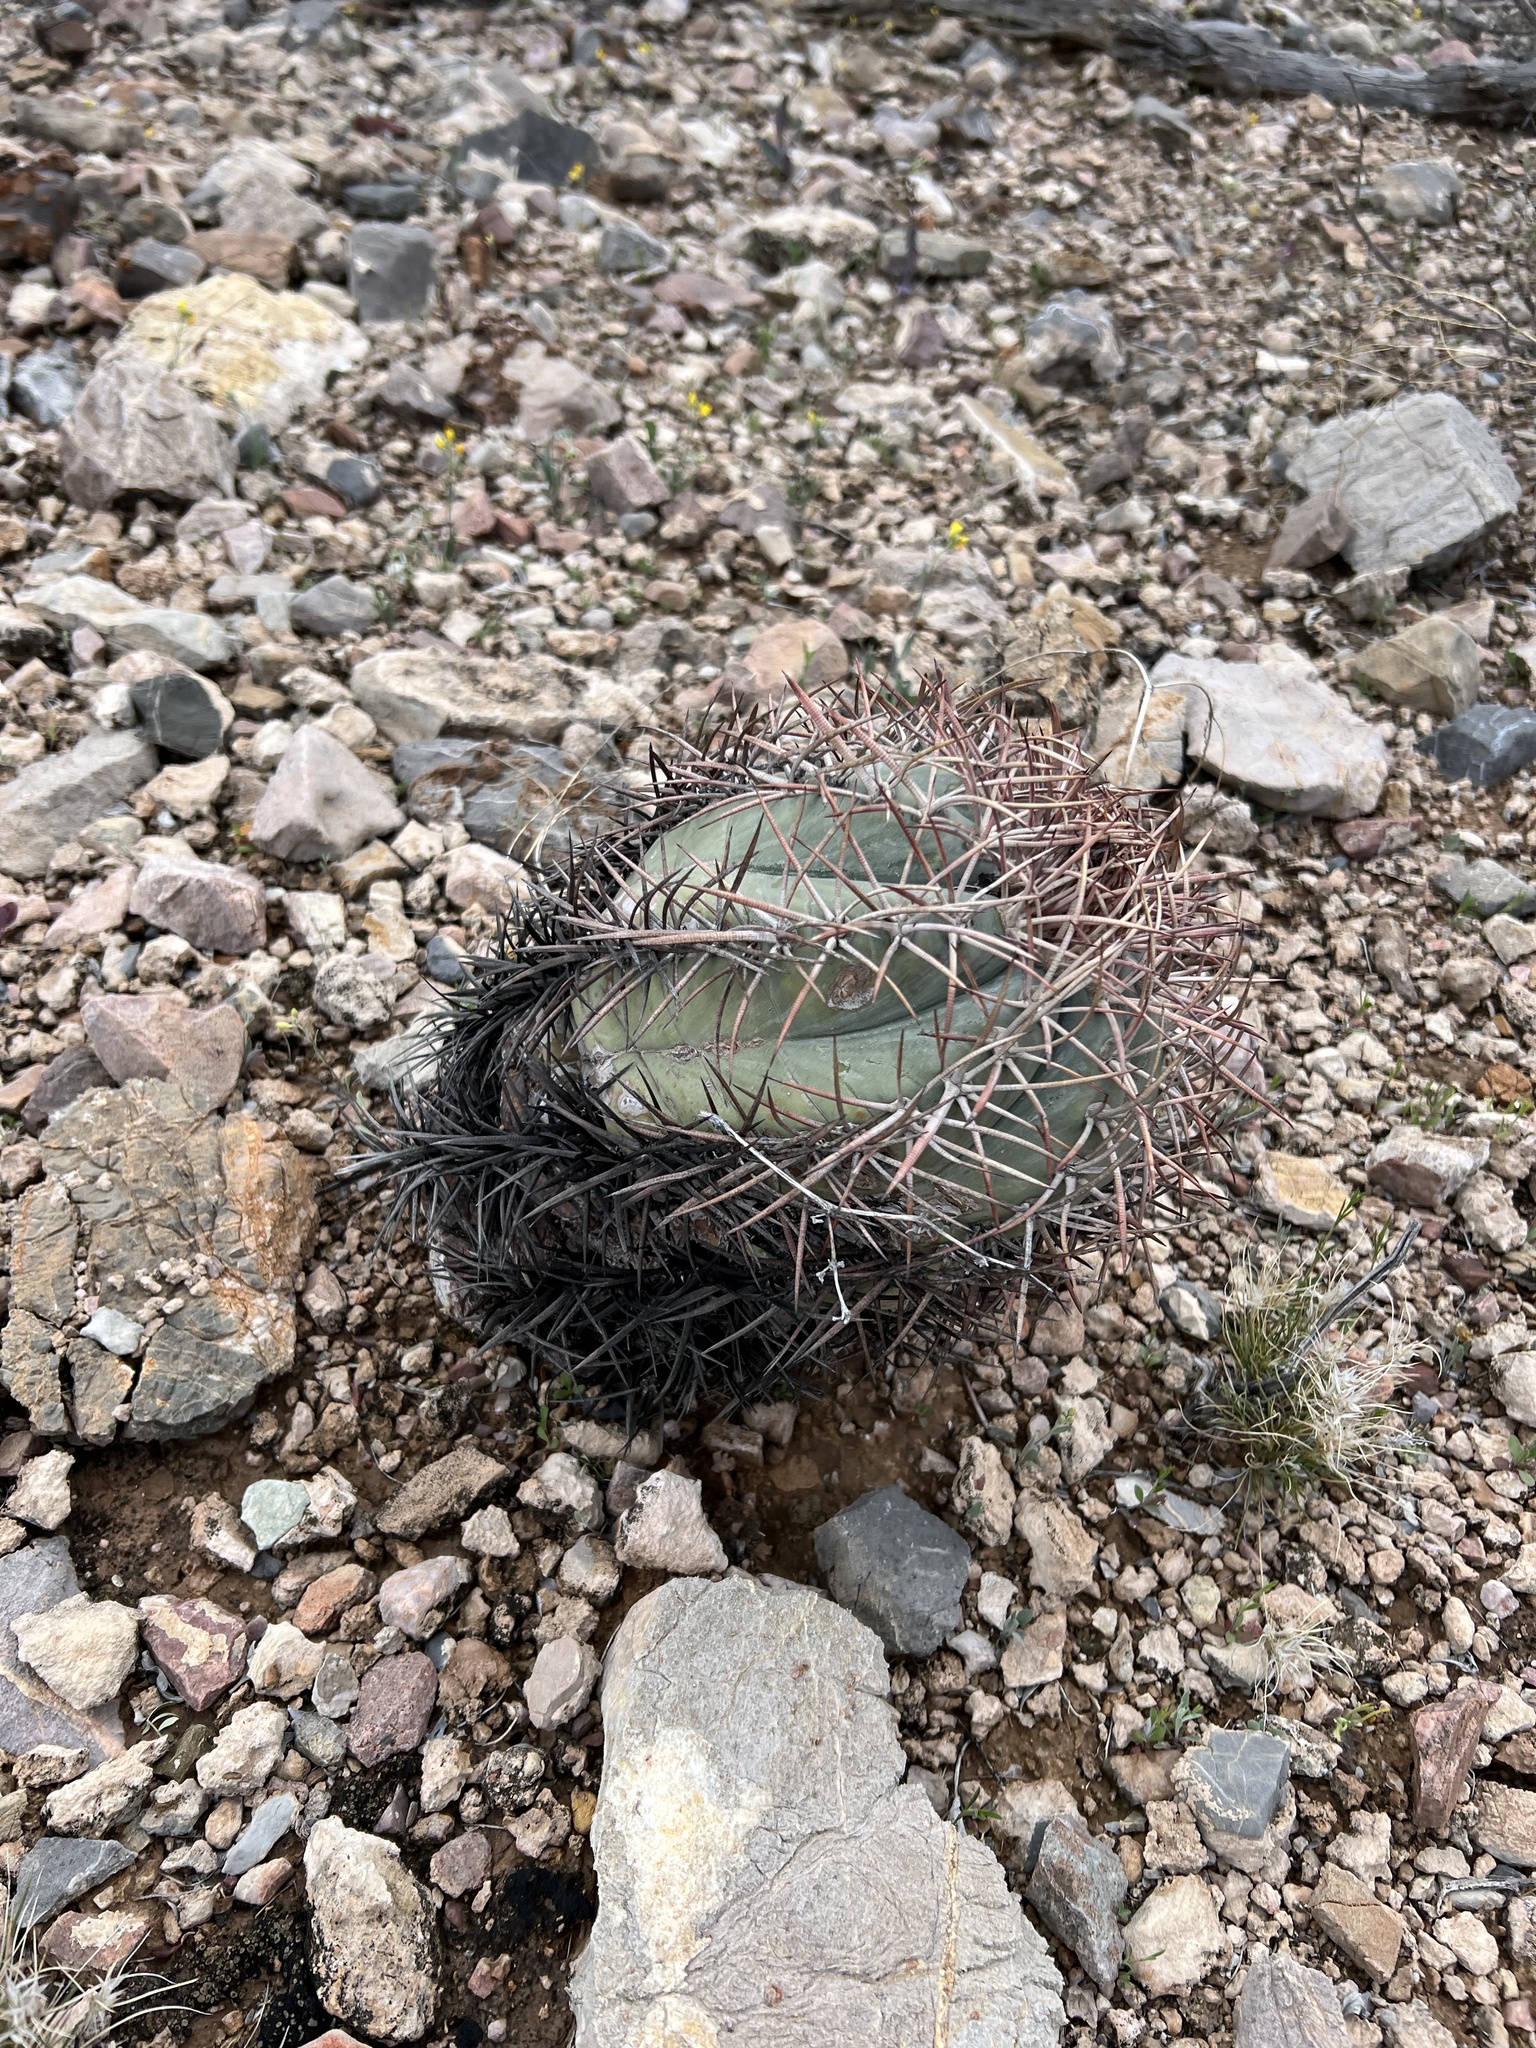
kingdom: Plantae
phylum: Tracheophyta
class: Magnoliopsida
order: Caryophyllales
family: Cactaceae
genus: Echinocactus
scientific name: Echinocactus horizonthalonius
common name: Devilshead
